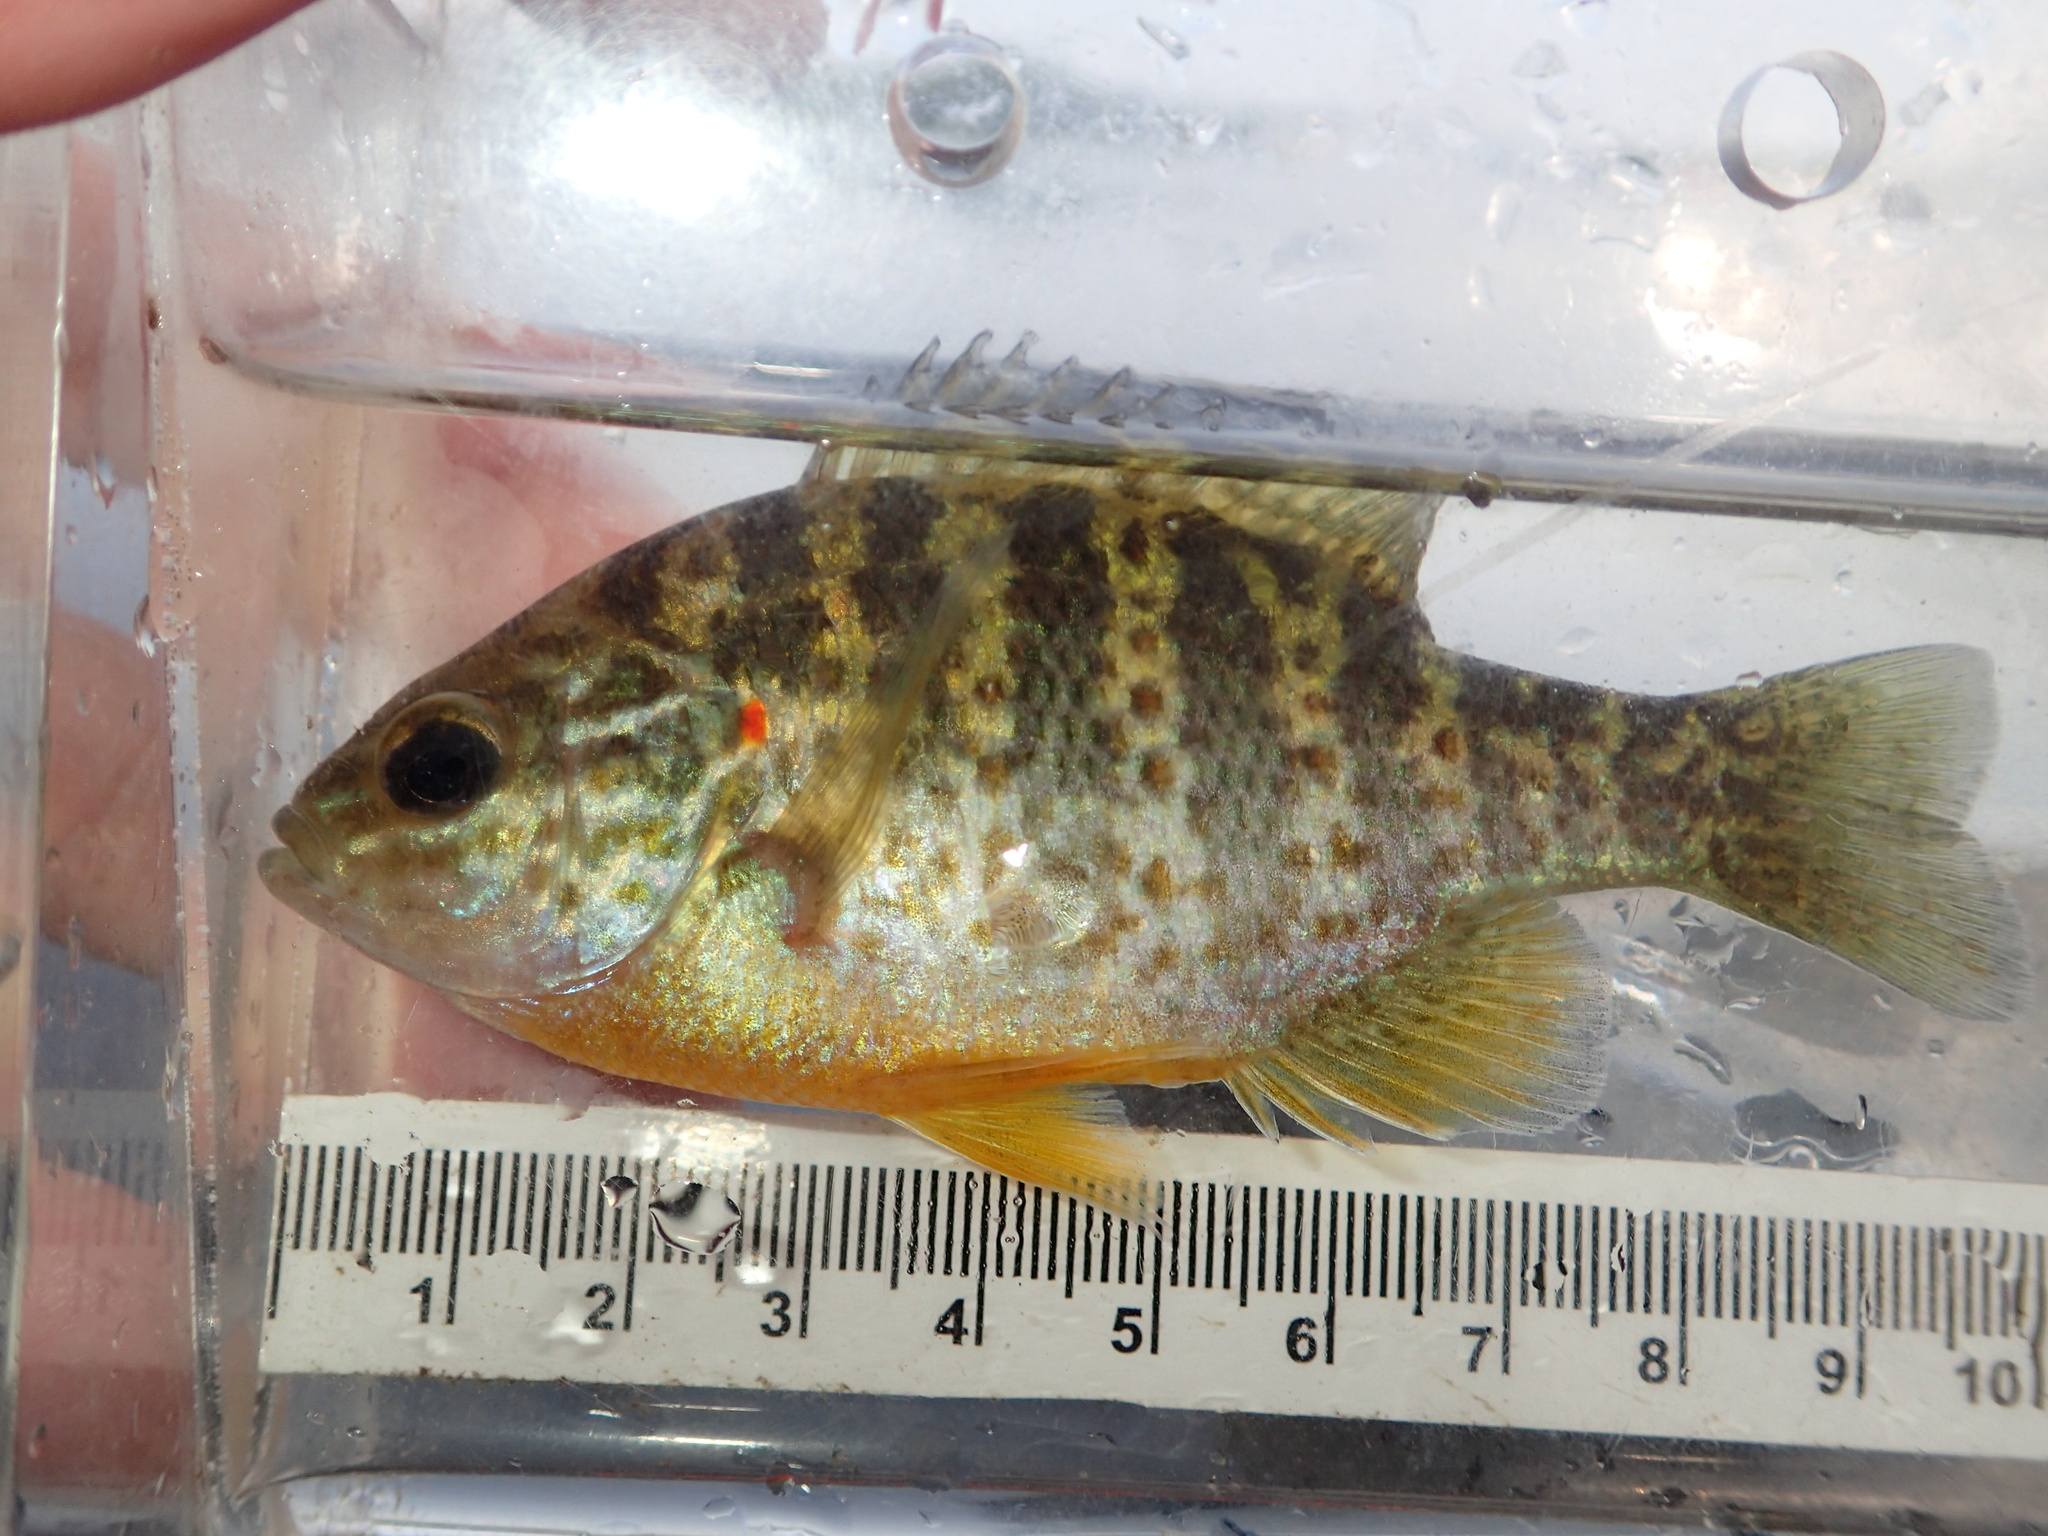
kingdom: Animalia
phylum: Chordata
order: Perciformes
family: Centrarchidae
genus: Lepomis
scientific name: Lepomis gibbosus
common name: Pumpkinseed
